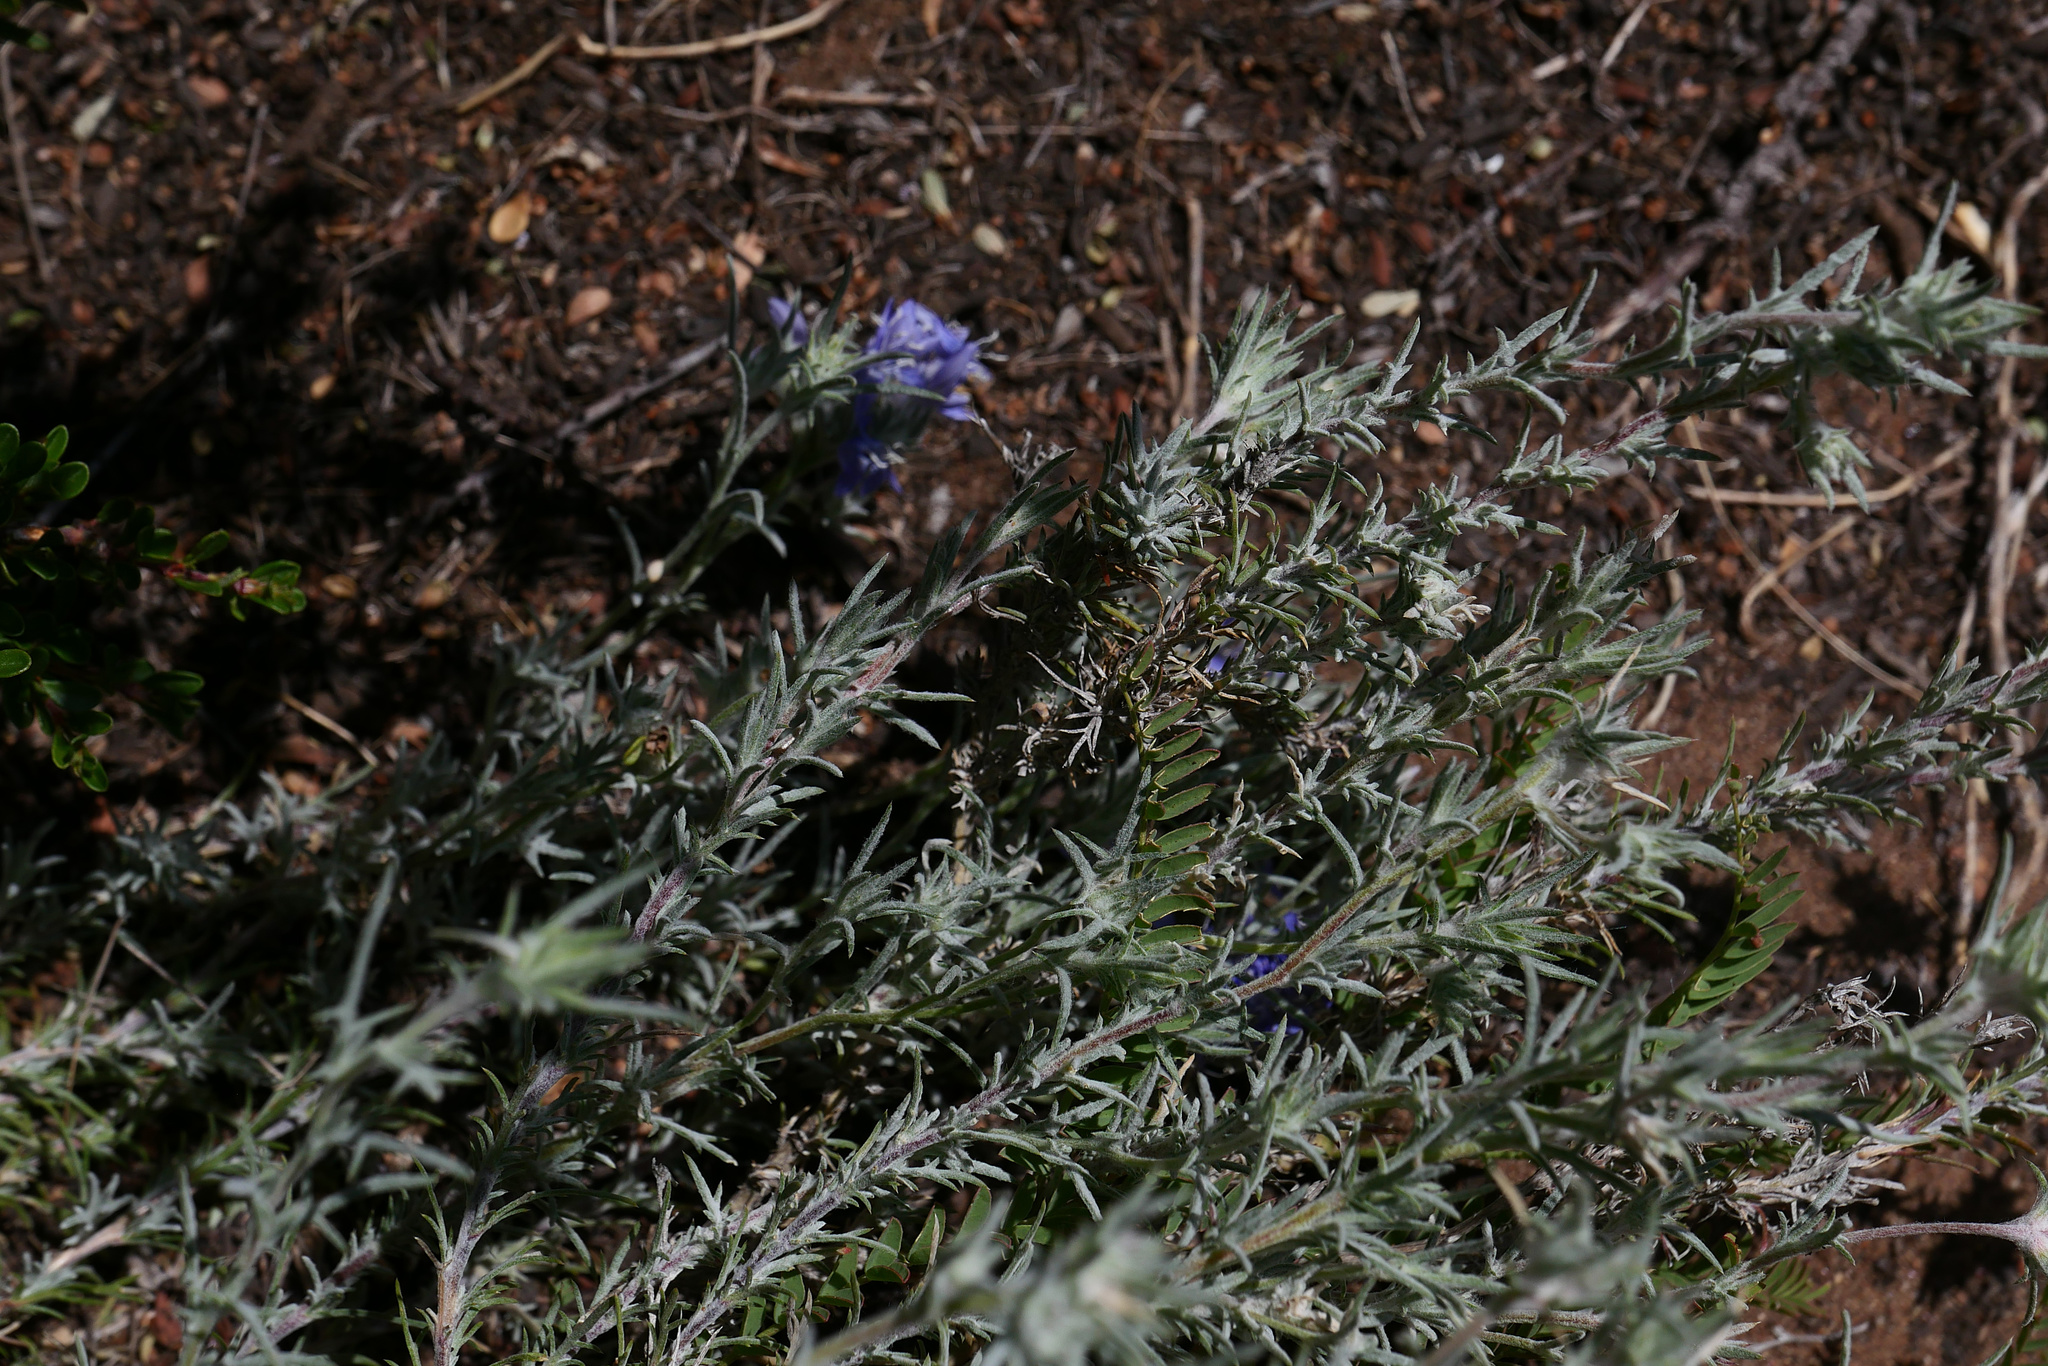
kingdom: Plantae
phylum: Tracheophyta
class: Magnoliopsida
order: Ericales
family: Polemoniaceae
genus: Eriastrum
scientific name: Eriastrum densifolium
